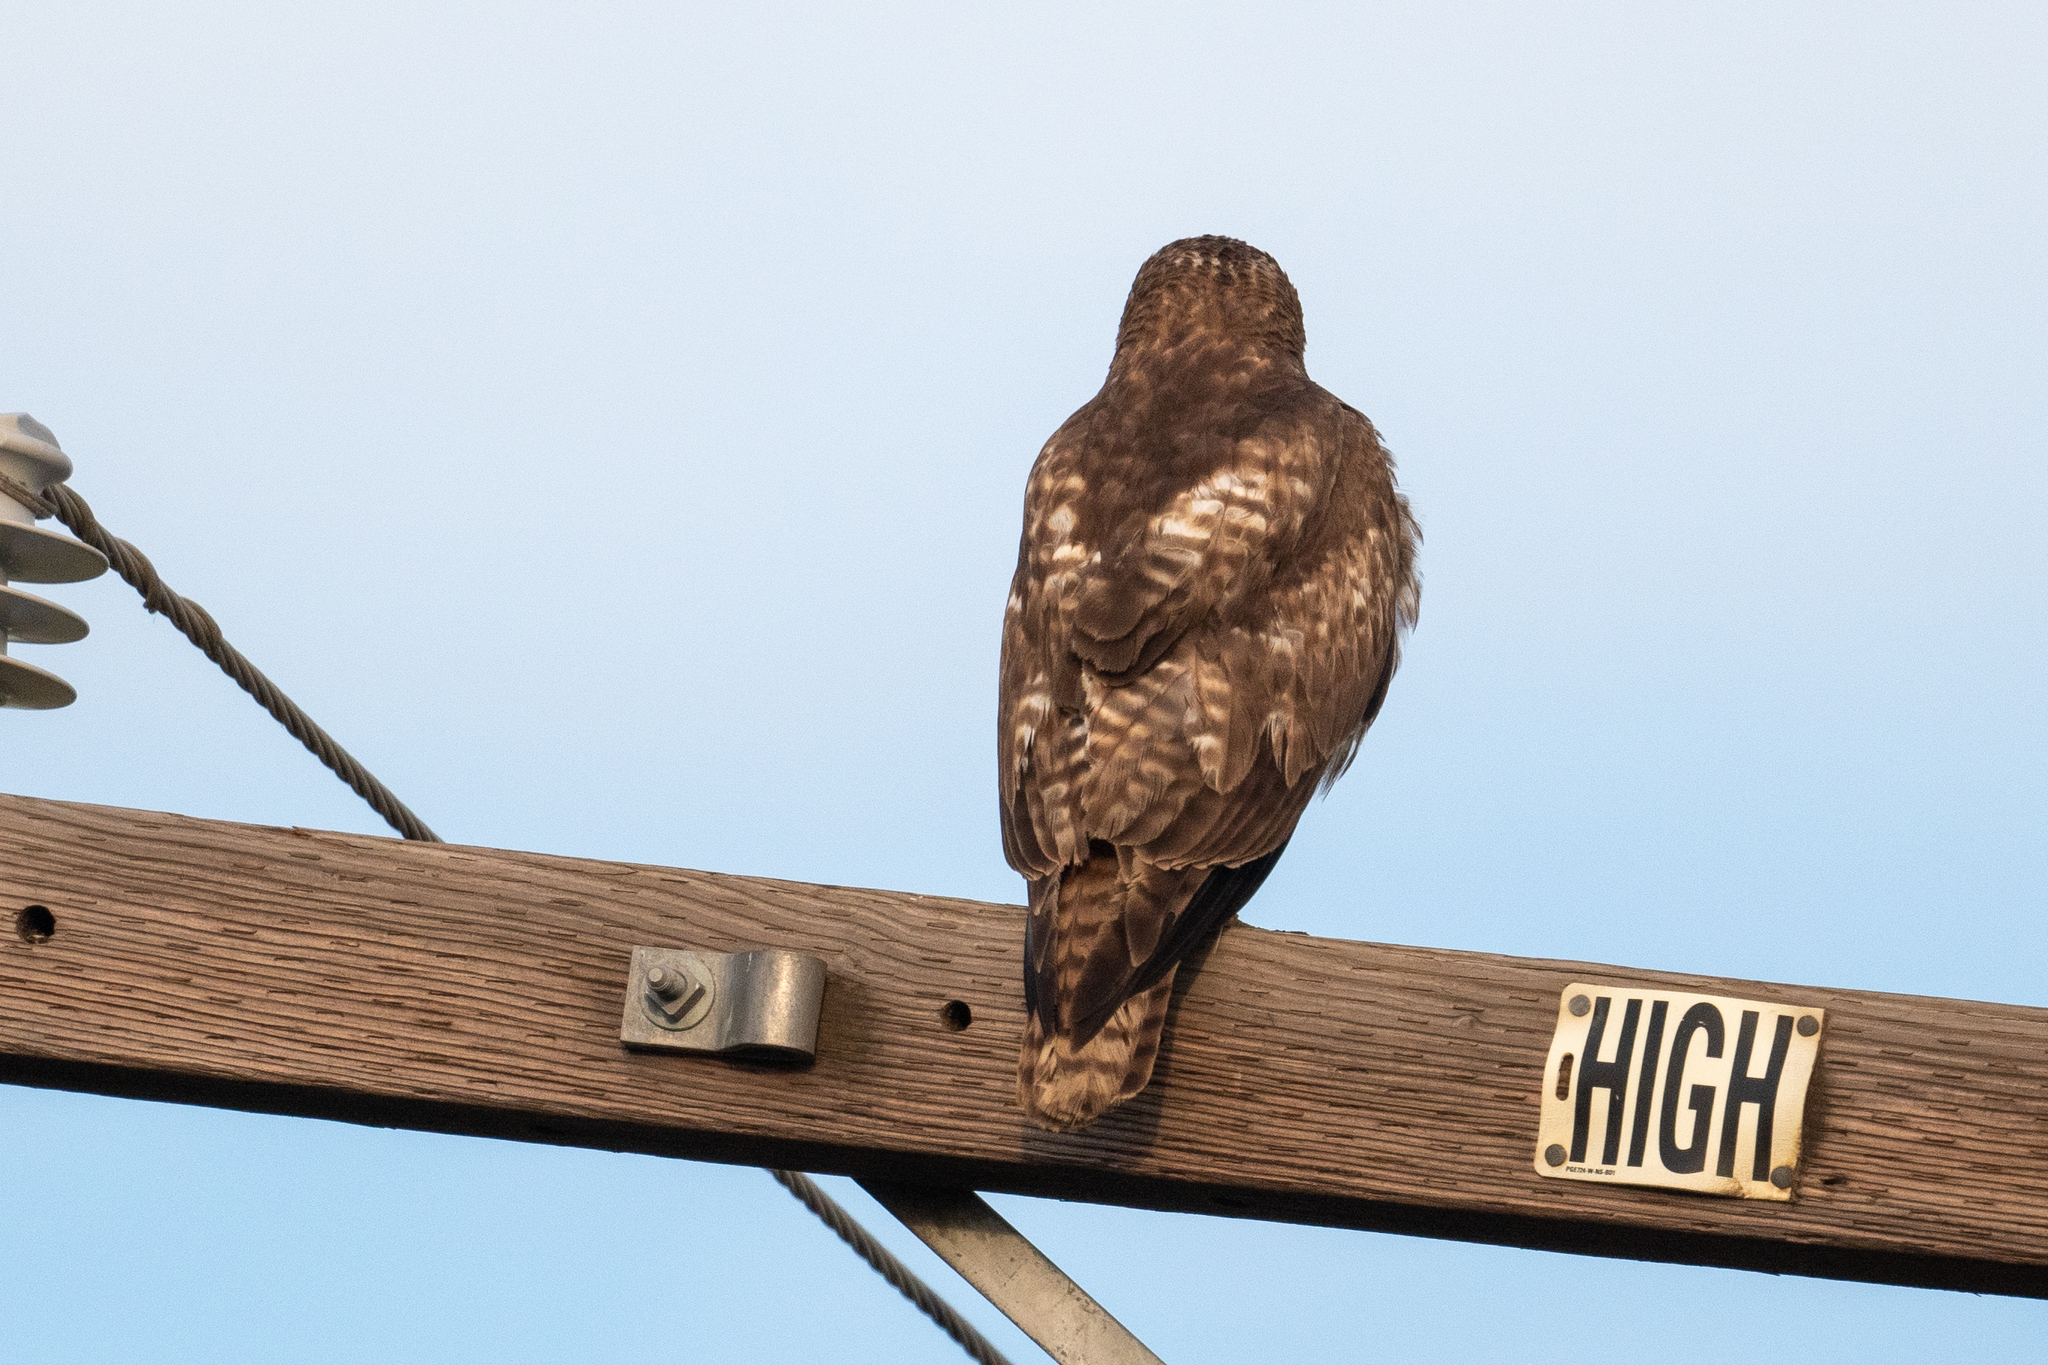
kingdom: Animalia
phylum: Chordata
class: Aves
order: Accipitriformes
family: Accipitridae
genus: Buteo
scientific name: Buteo jamaicensis
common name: Red-tailed hawk
